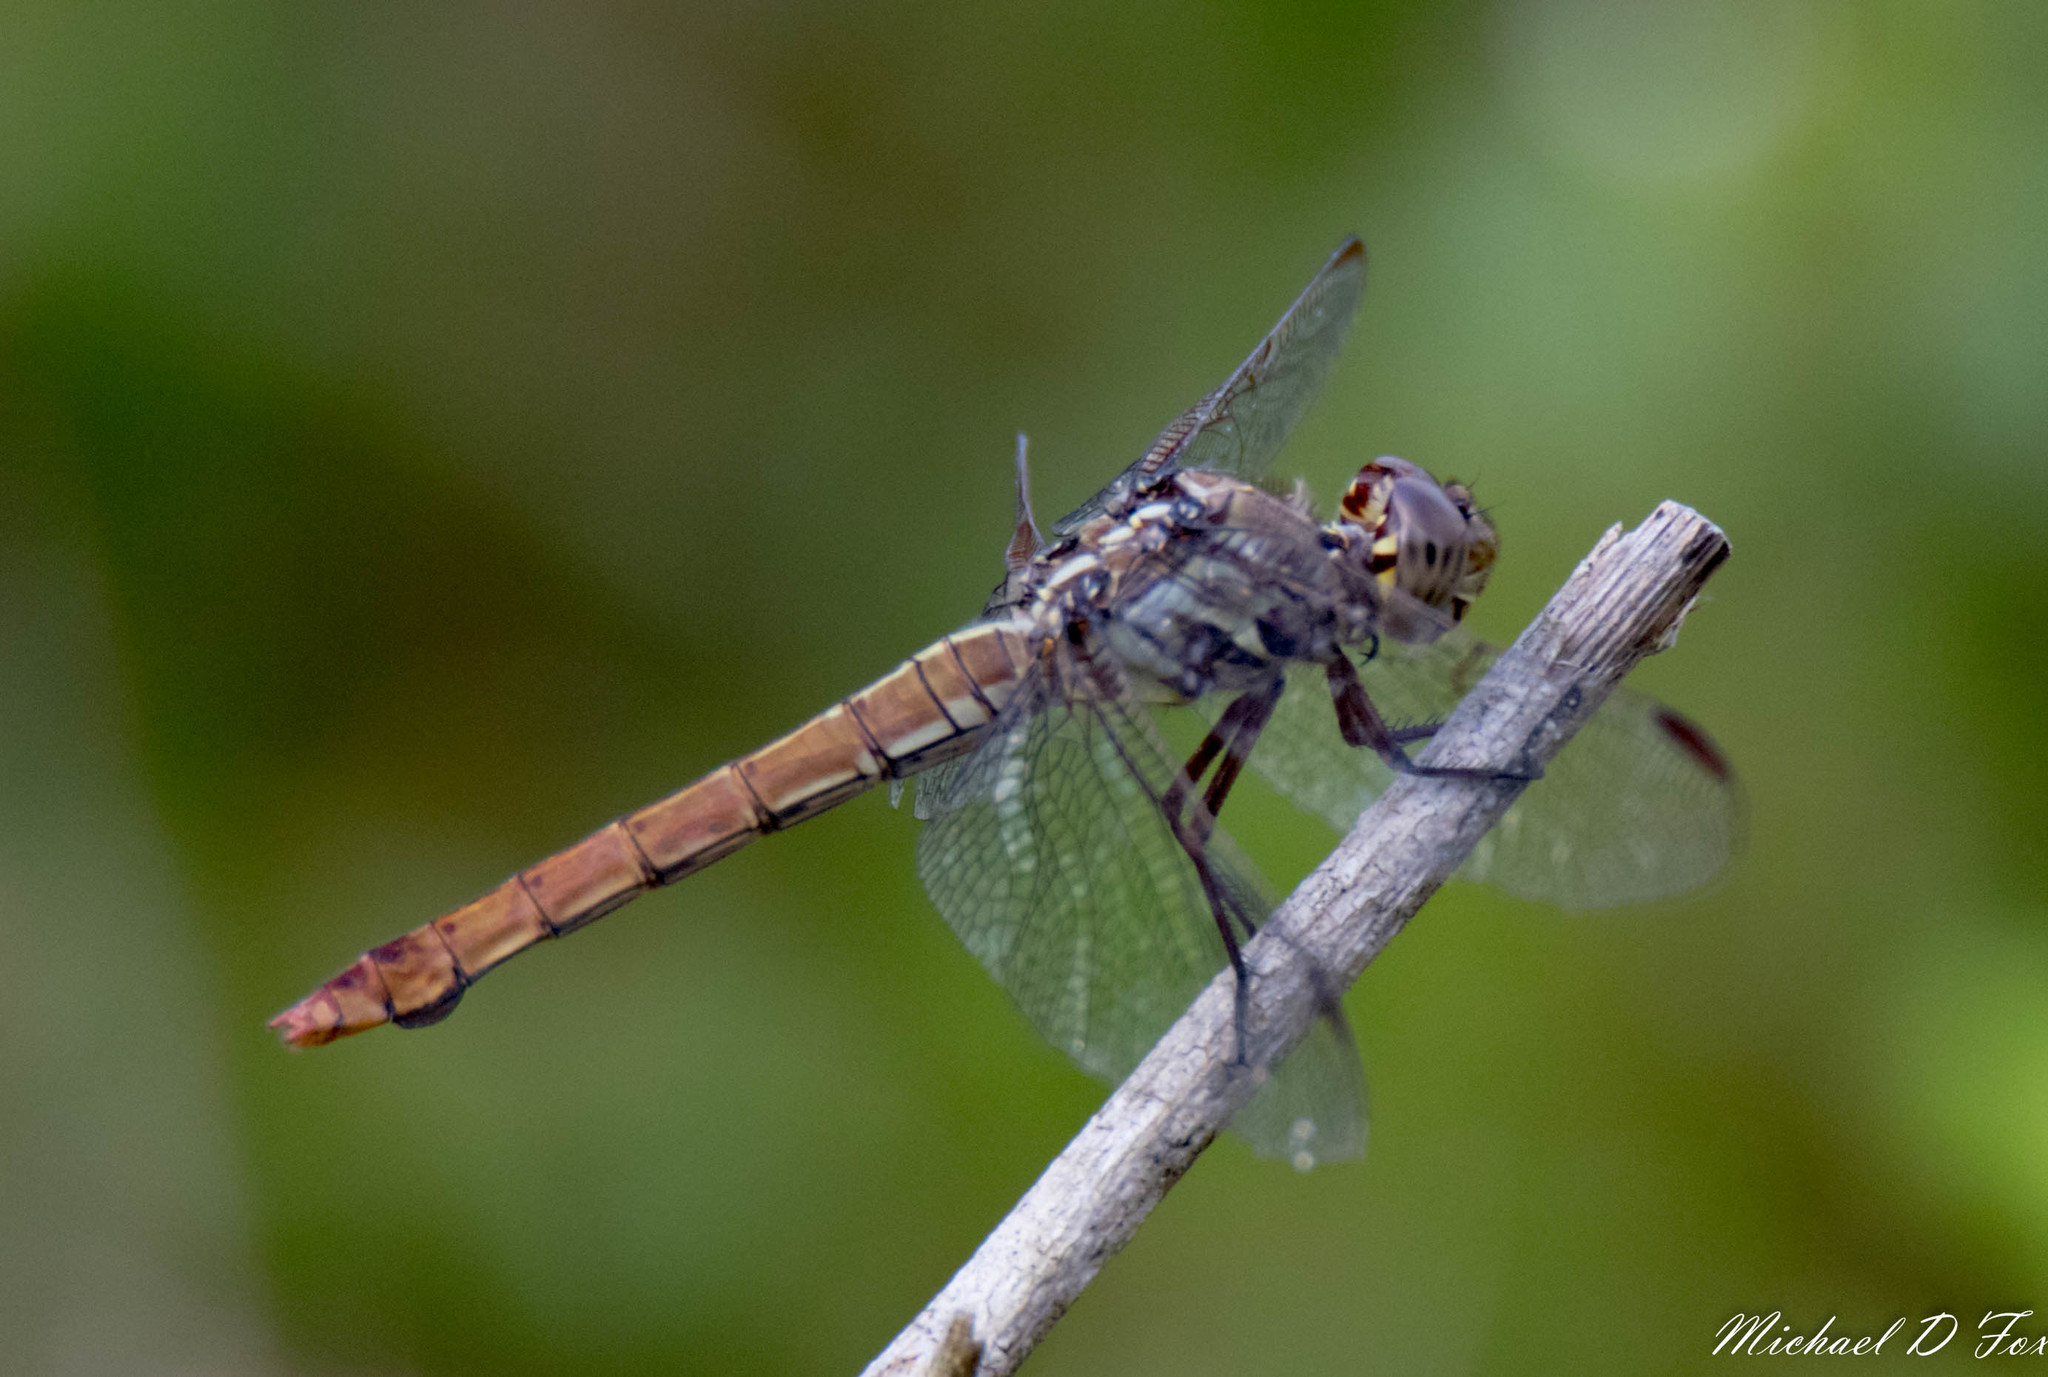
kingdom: Animalia
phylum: Arthropoda
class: Insecta
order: Odonata
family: Libellulidae
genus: Orthemis
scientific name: Orthemis ferruginea
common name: Roseate skimmer
